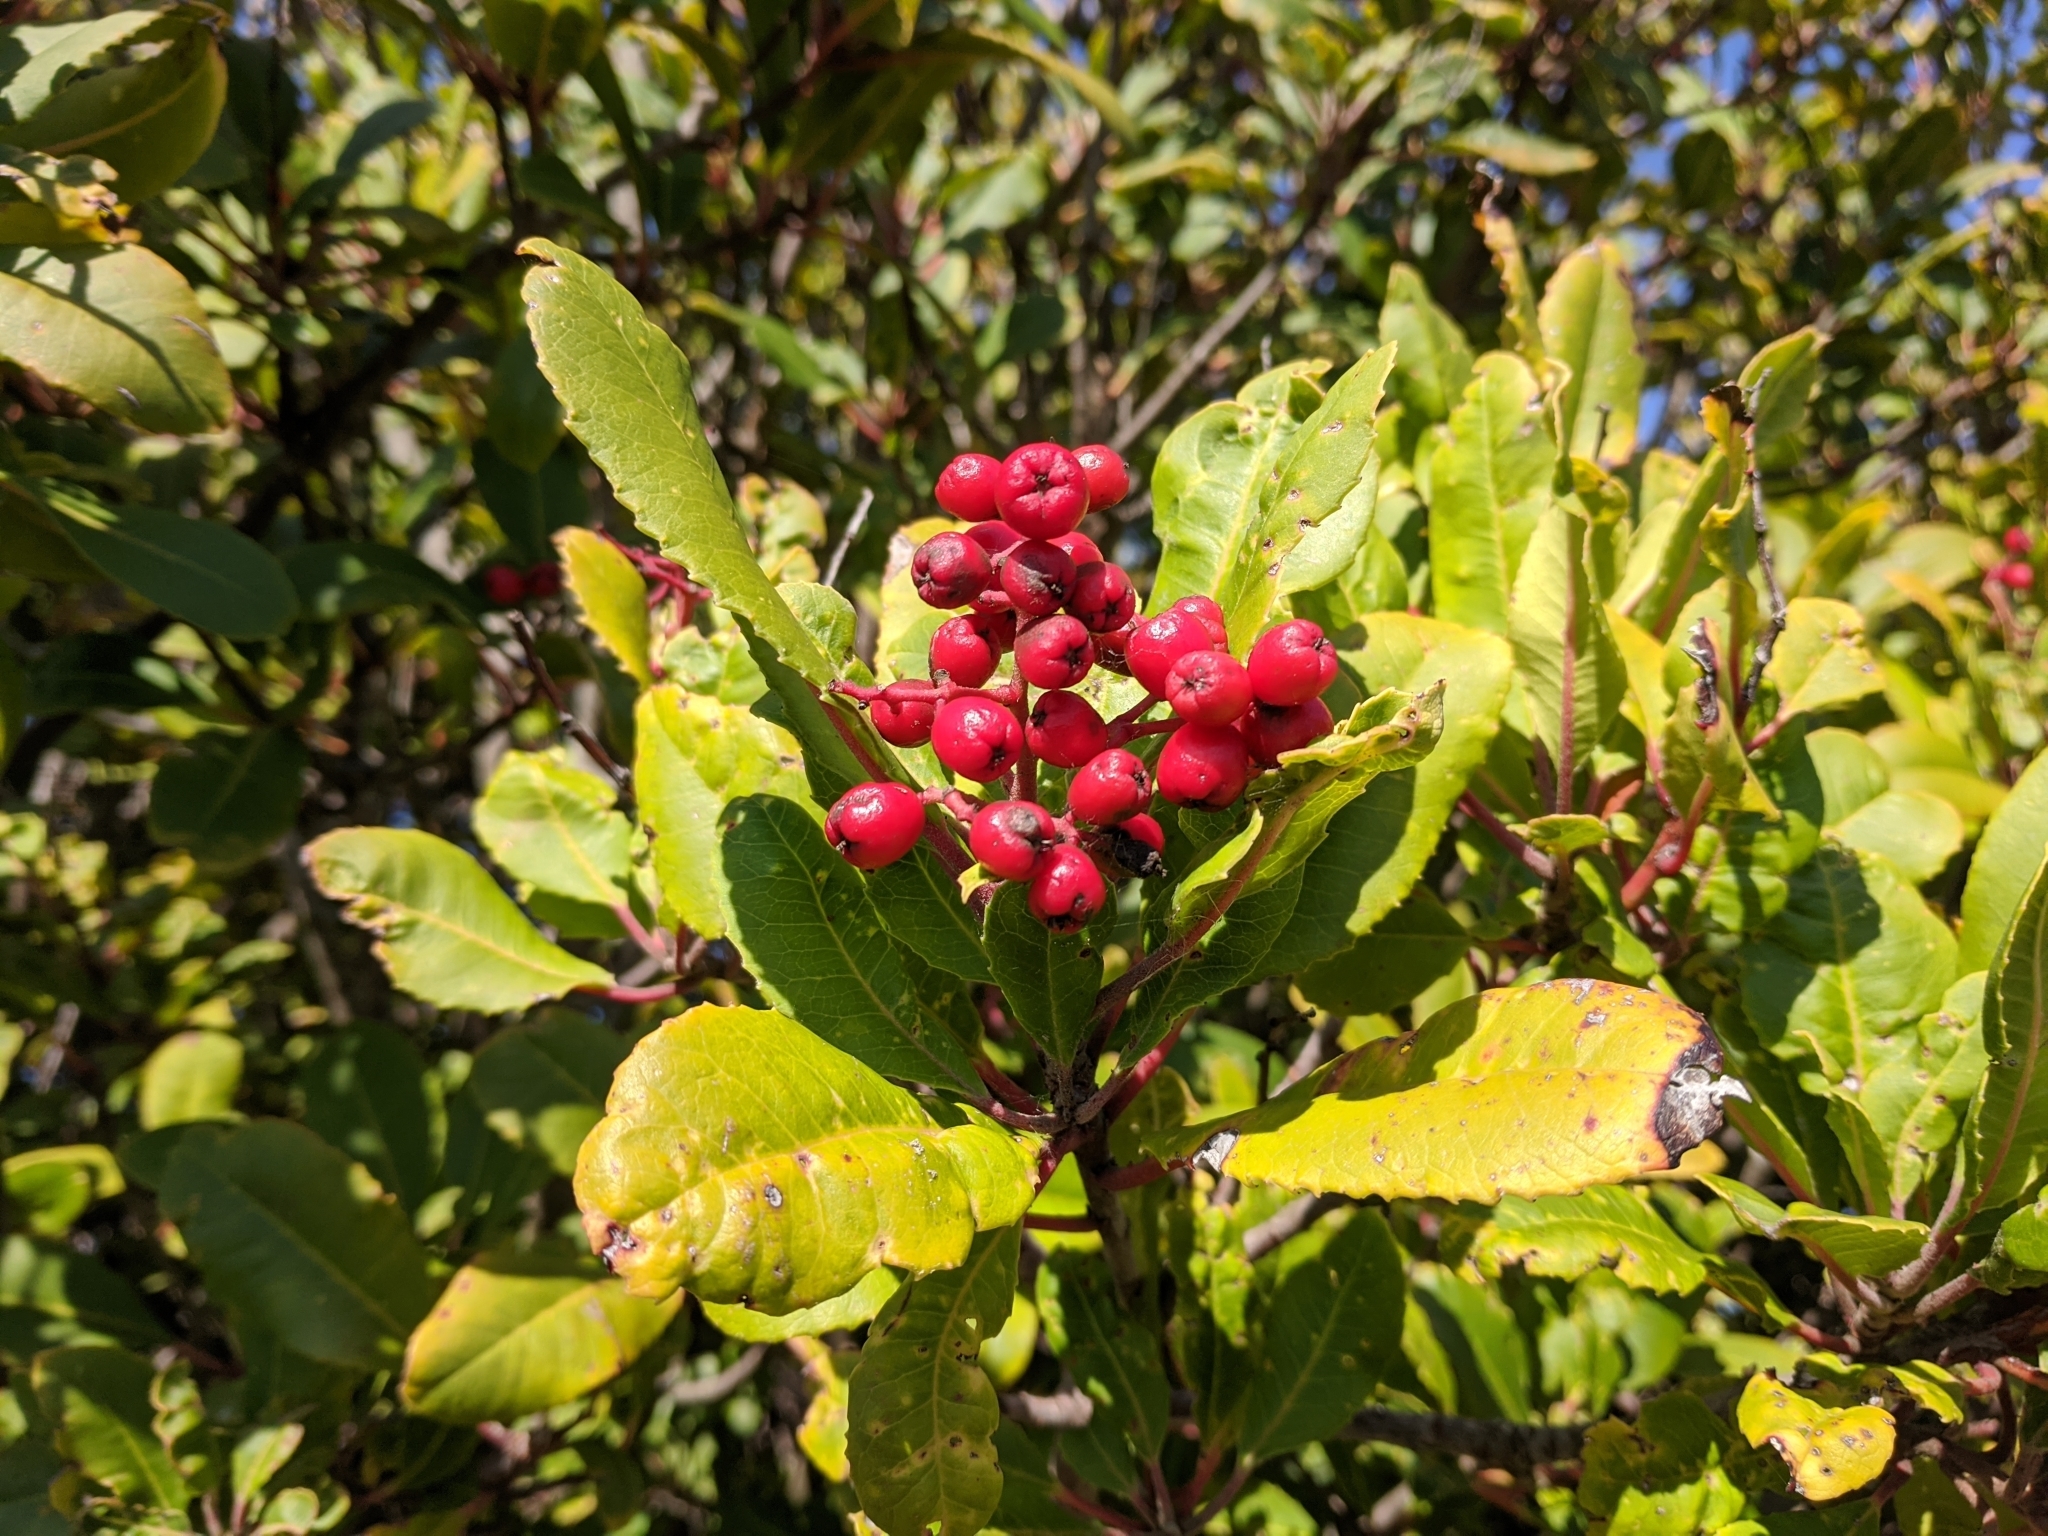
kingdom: Plantae
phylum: Tracheophyta
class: Magnoliopsida
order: Rosales
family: Rosaceae
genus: Heteromeles
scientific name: Heteromeles arbutifolia
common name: California-holly
